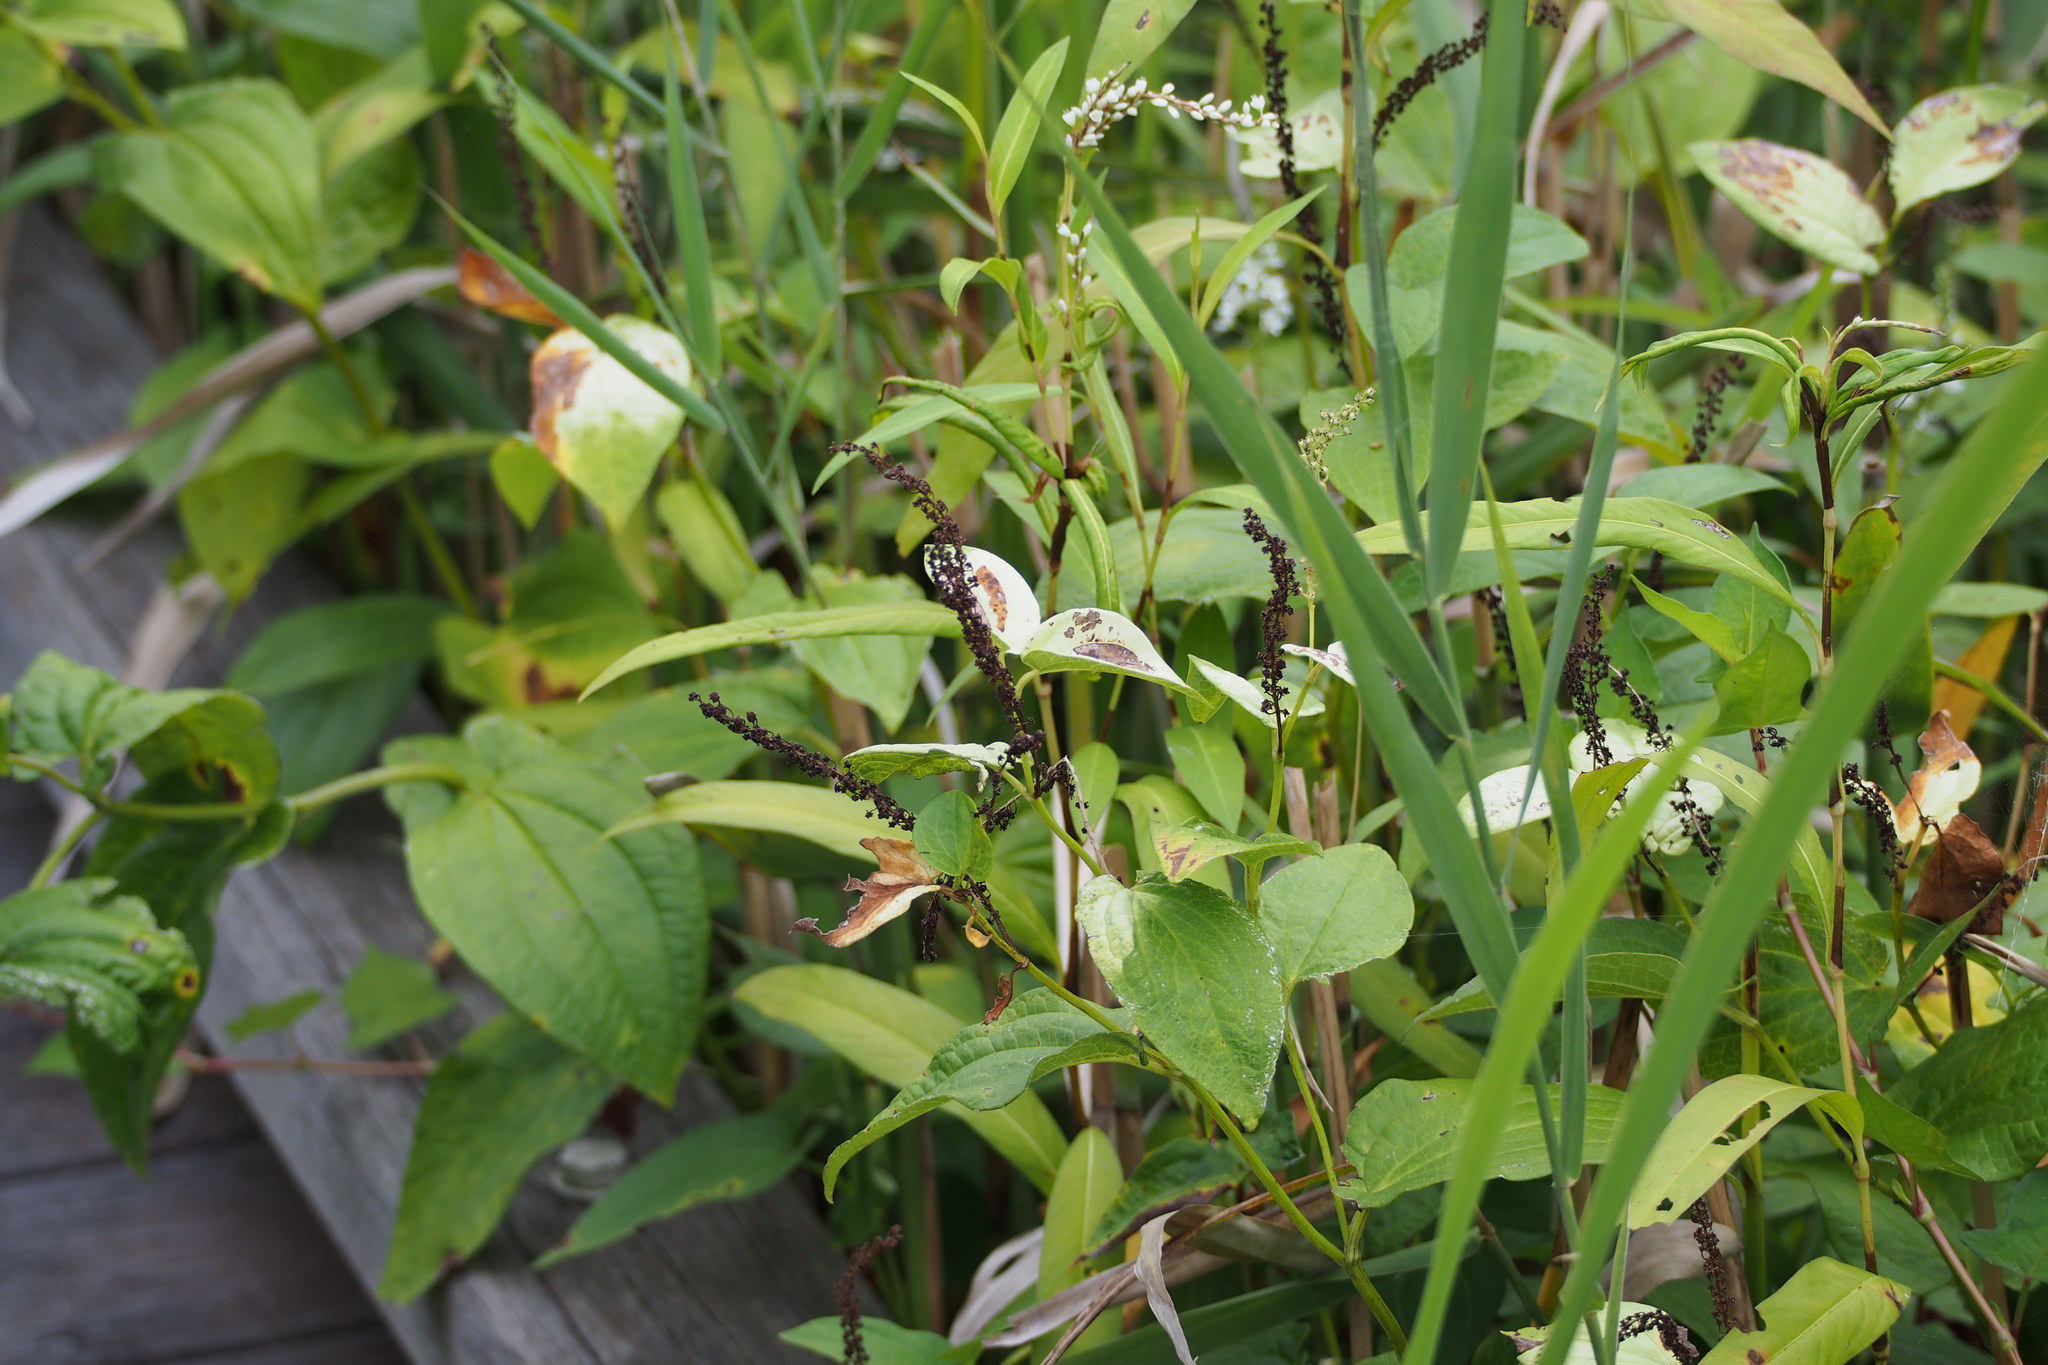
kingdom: Plantae
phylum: Tracheophyta
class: Magnoliopsida
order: Piperales
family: Saururaceae
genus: Saururus
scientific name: Saururus chinensis
